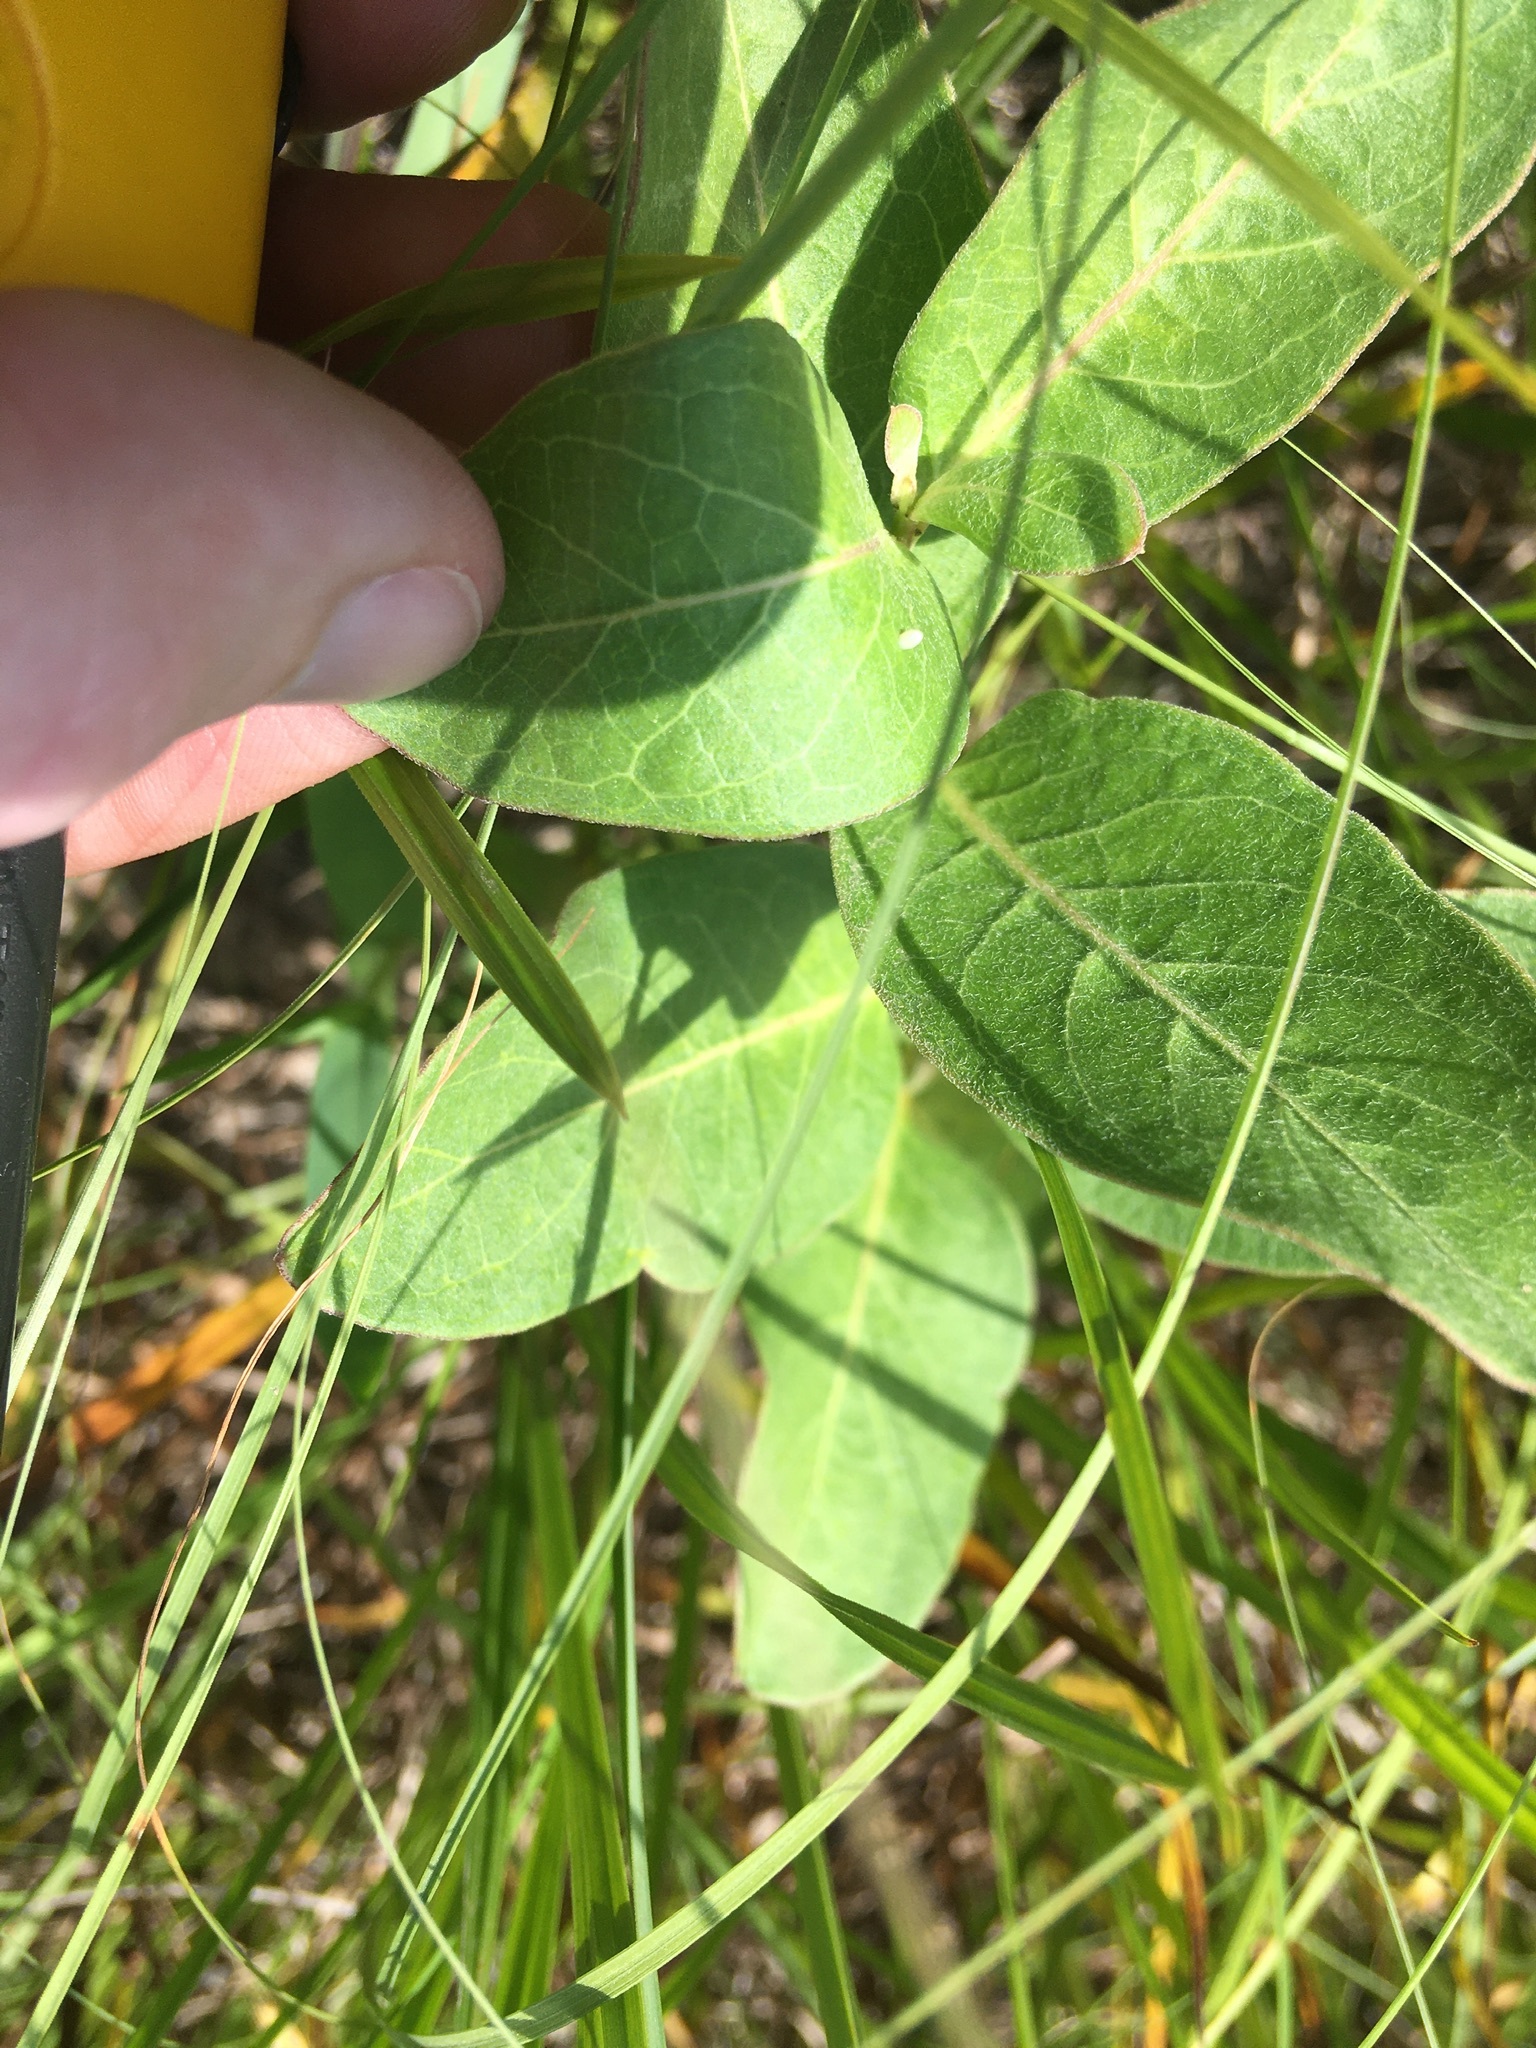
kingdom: Animalia
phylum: Arthropoda
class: Insecta
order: Lepidoptera
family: Nymphalidae
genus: Danaus
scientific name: Danaus plexippus
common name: Monarch
